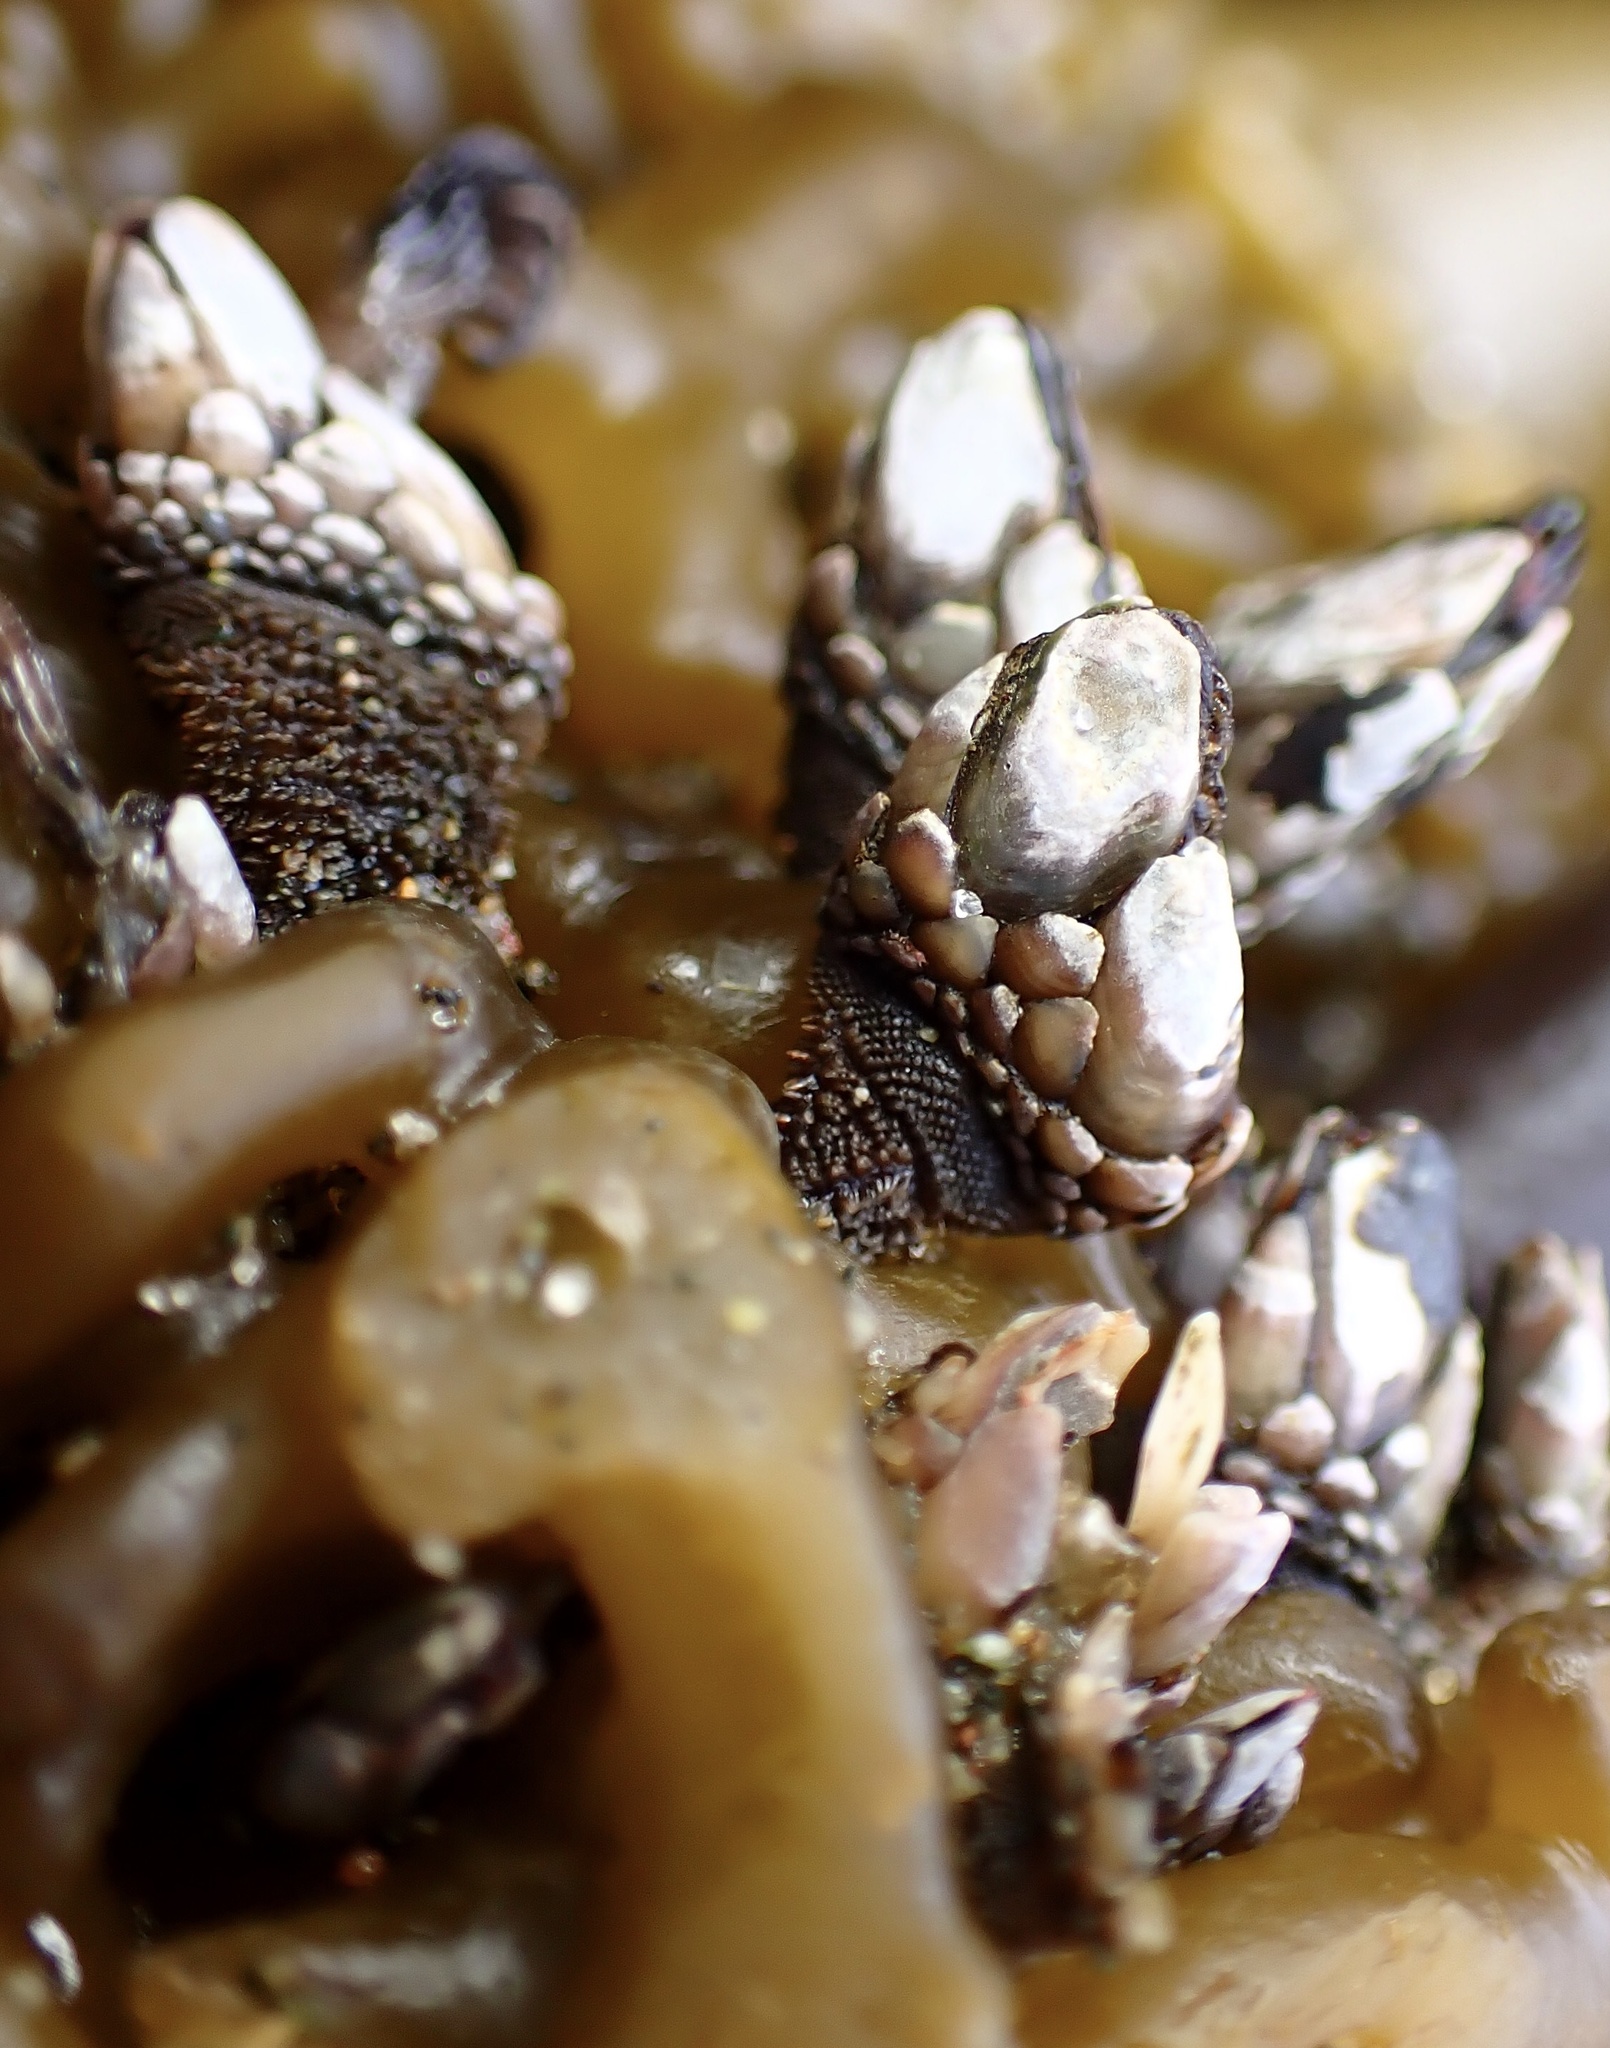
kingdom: Animalia
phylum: Arthropoda
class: Maxillopoda
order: Pedunculata
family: Pollicipedidae
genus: Pollicipes
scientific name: Pollicipes polymerus
